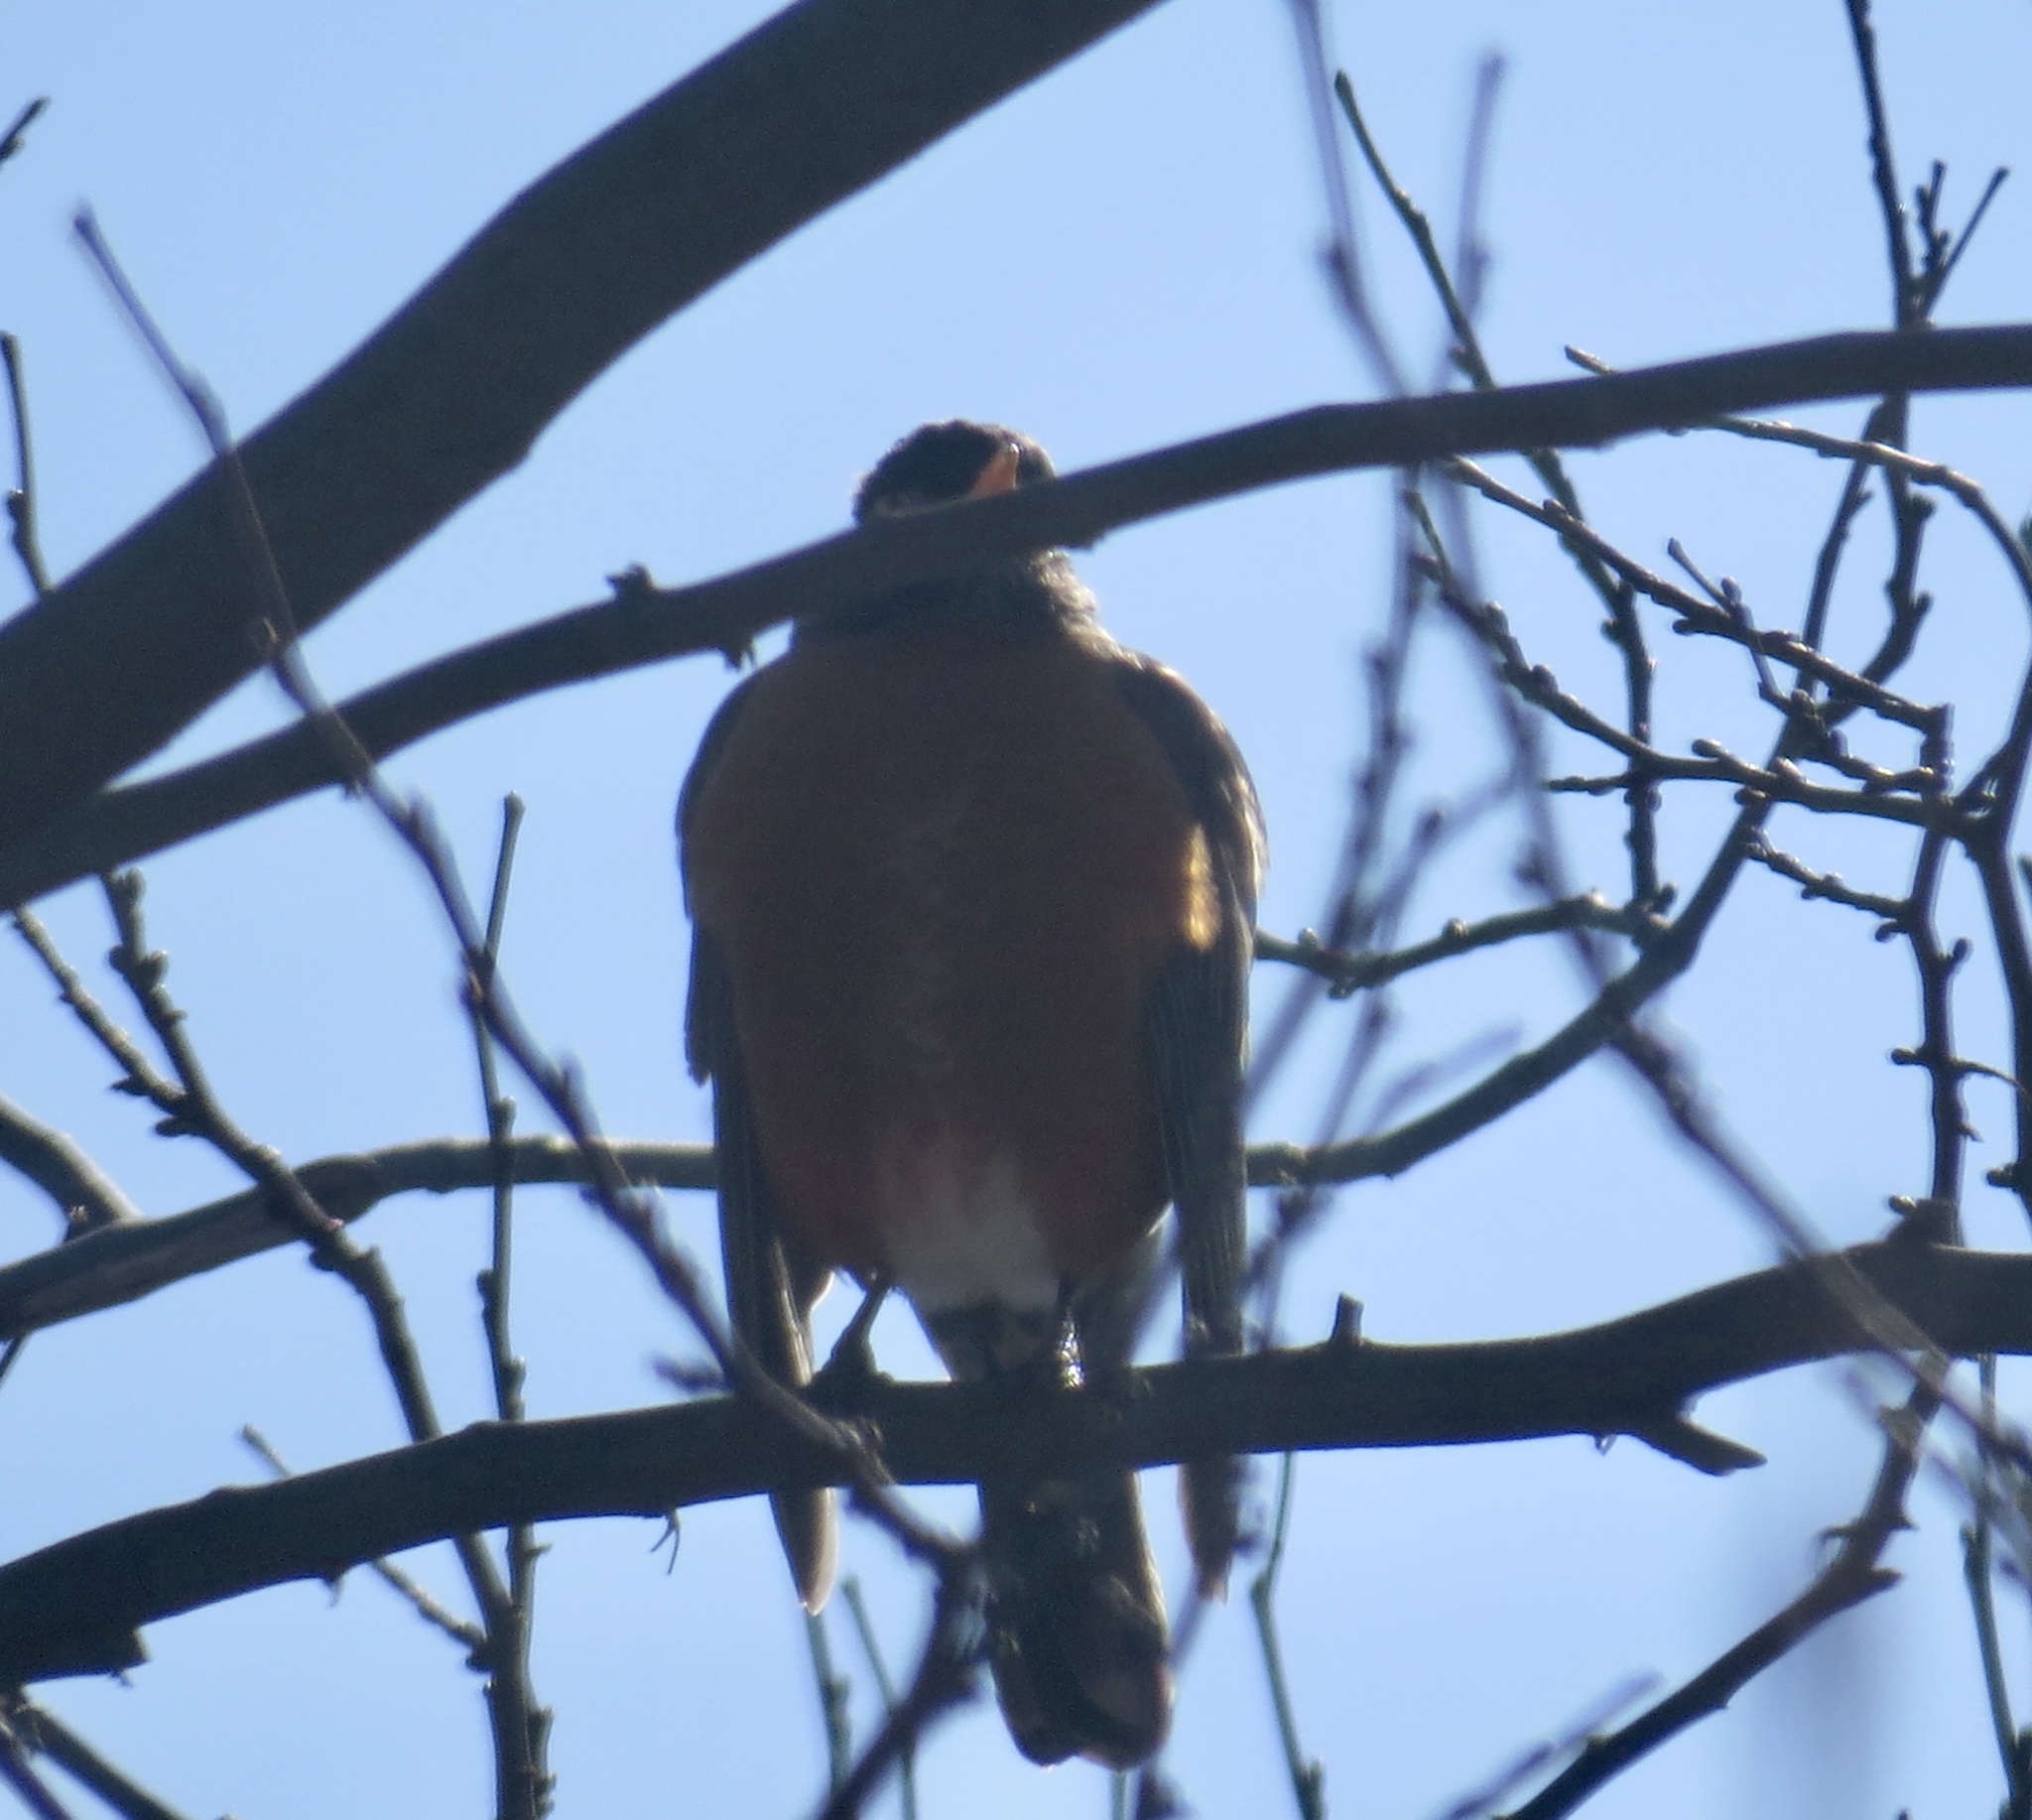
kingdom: Animalia
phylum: Chordata
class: Aves
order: Passeriformes
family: Turdidae
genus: Turdus
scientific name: Turdus migratorius
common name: American robin
